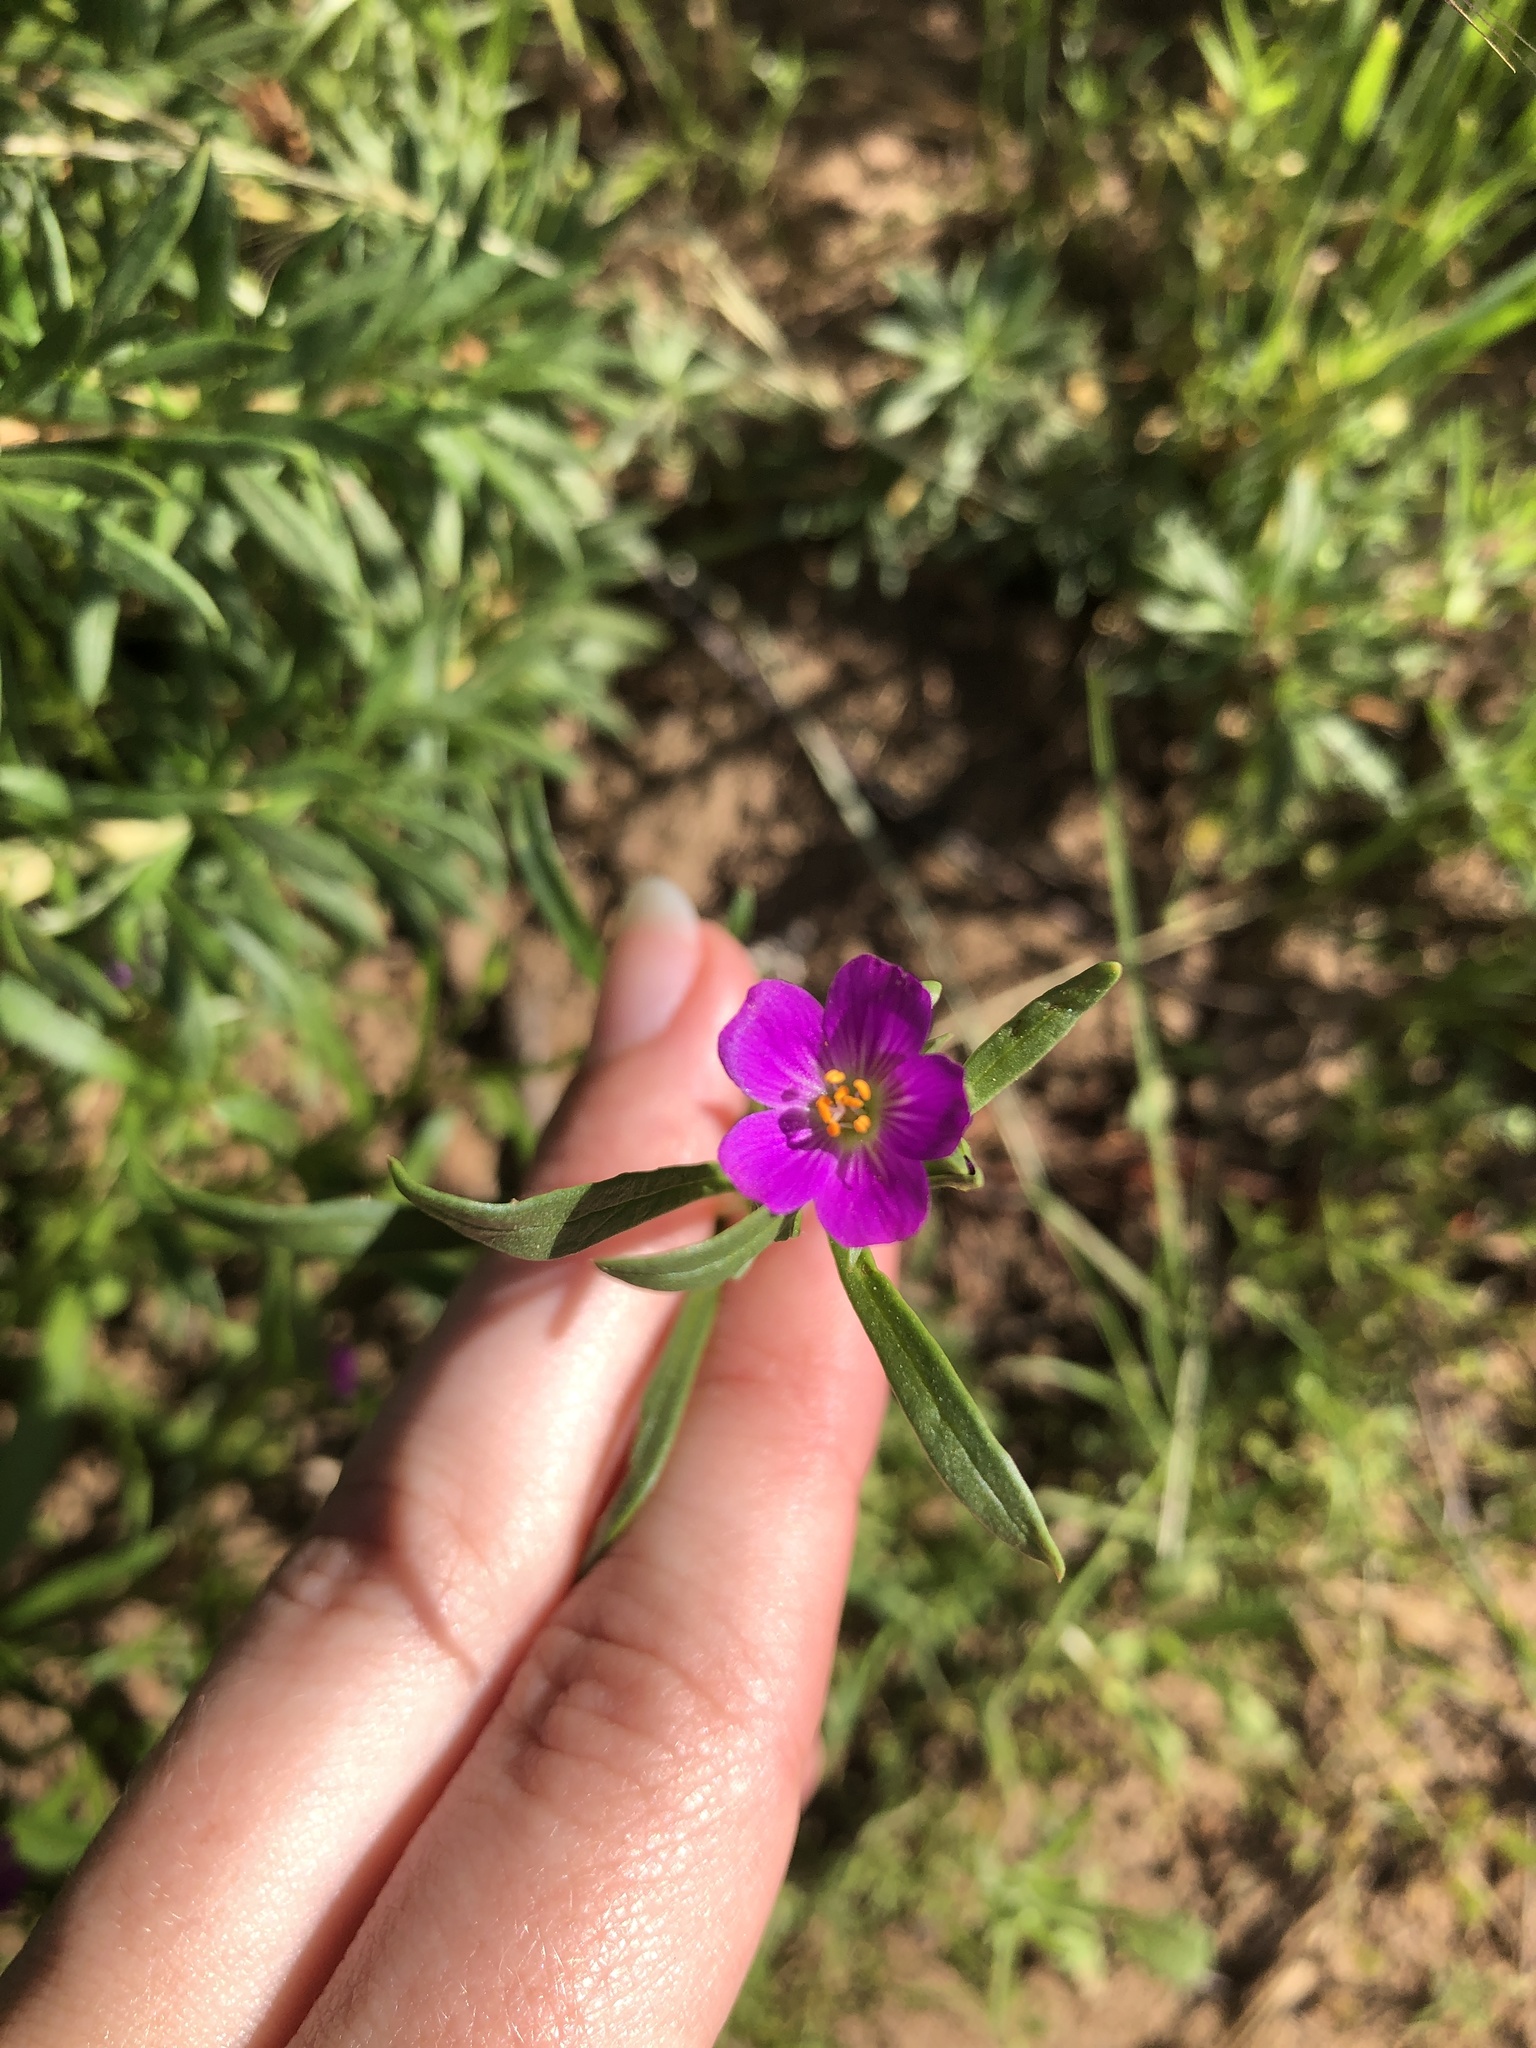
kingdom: Plantae
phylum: Tracheophyta
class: Magnoliopsida
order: Caryophyllales
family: Montiaceae
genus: Calandrinia
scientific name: Calandrinia menziesii
